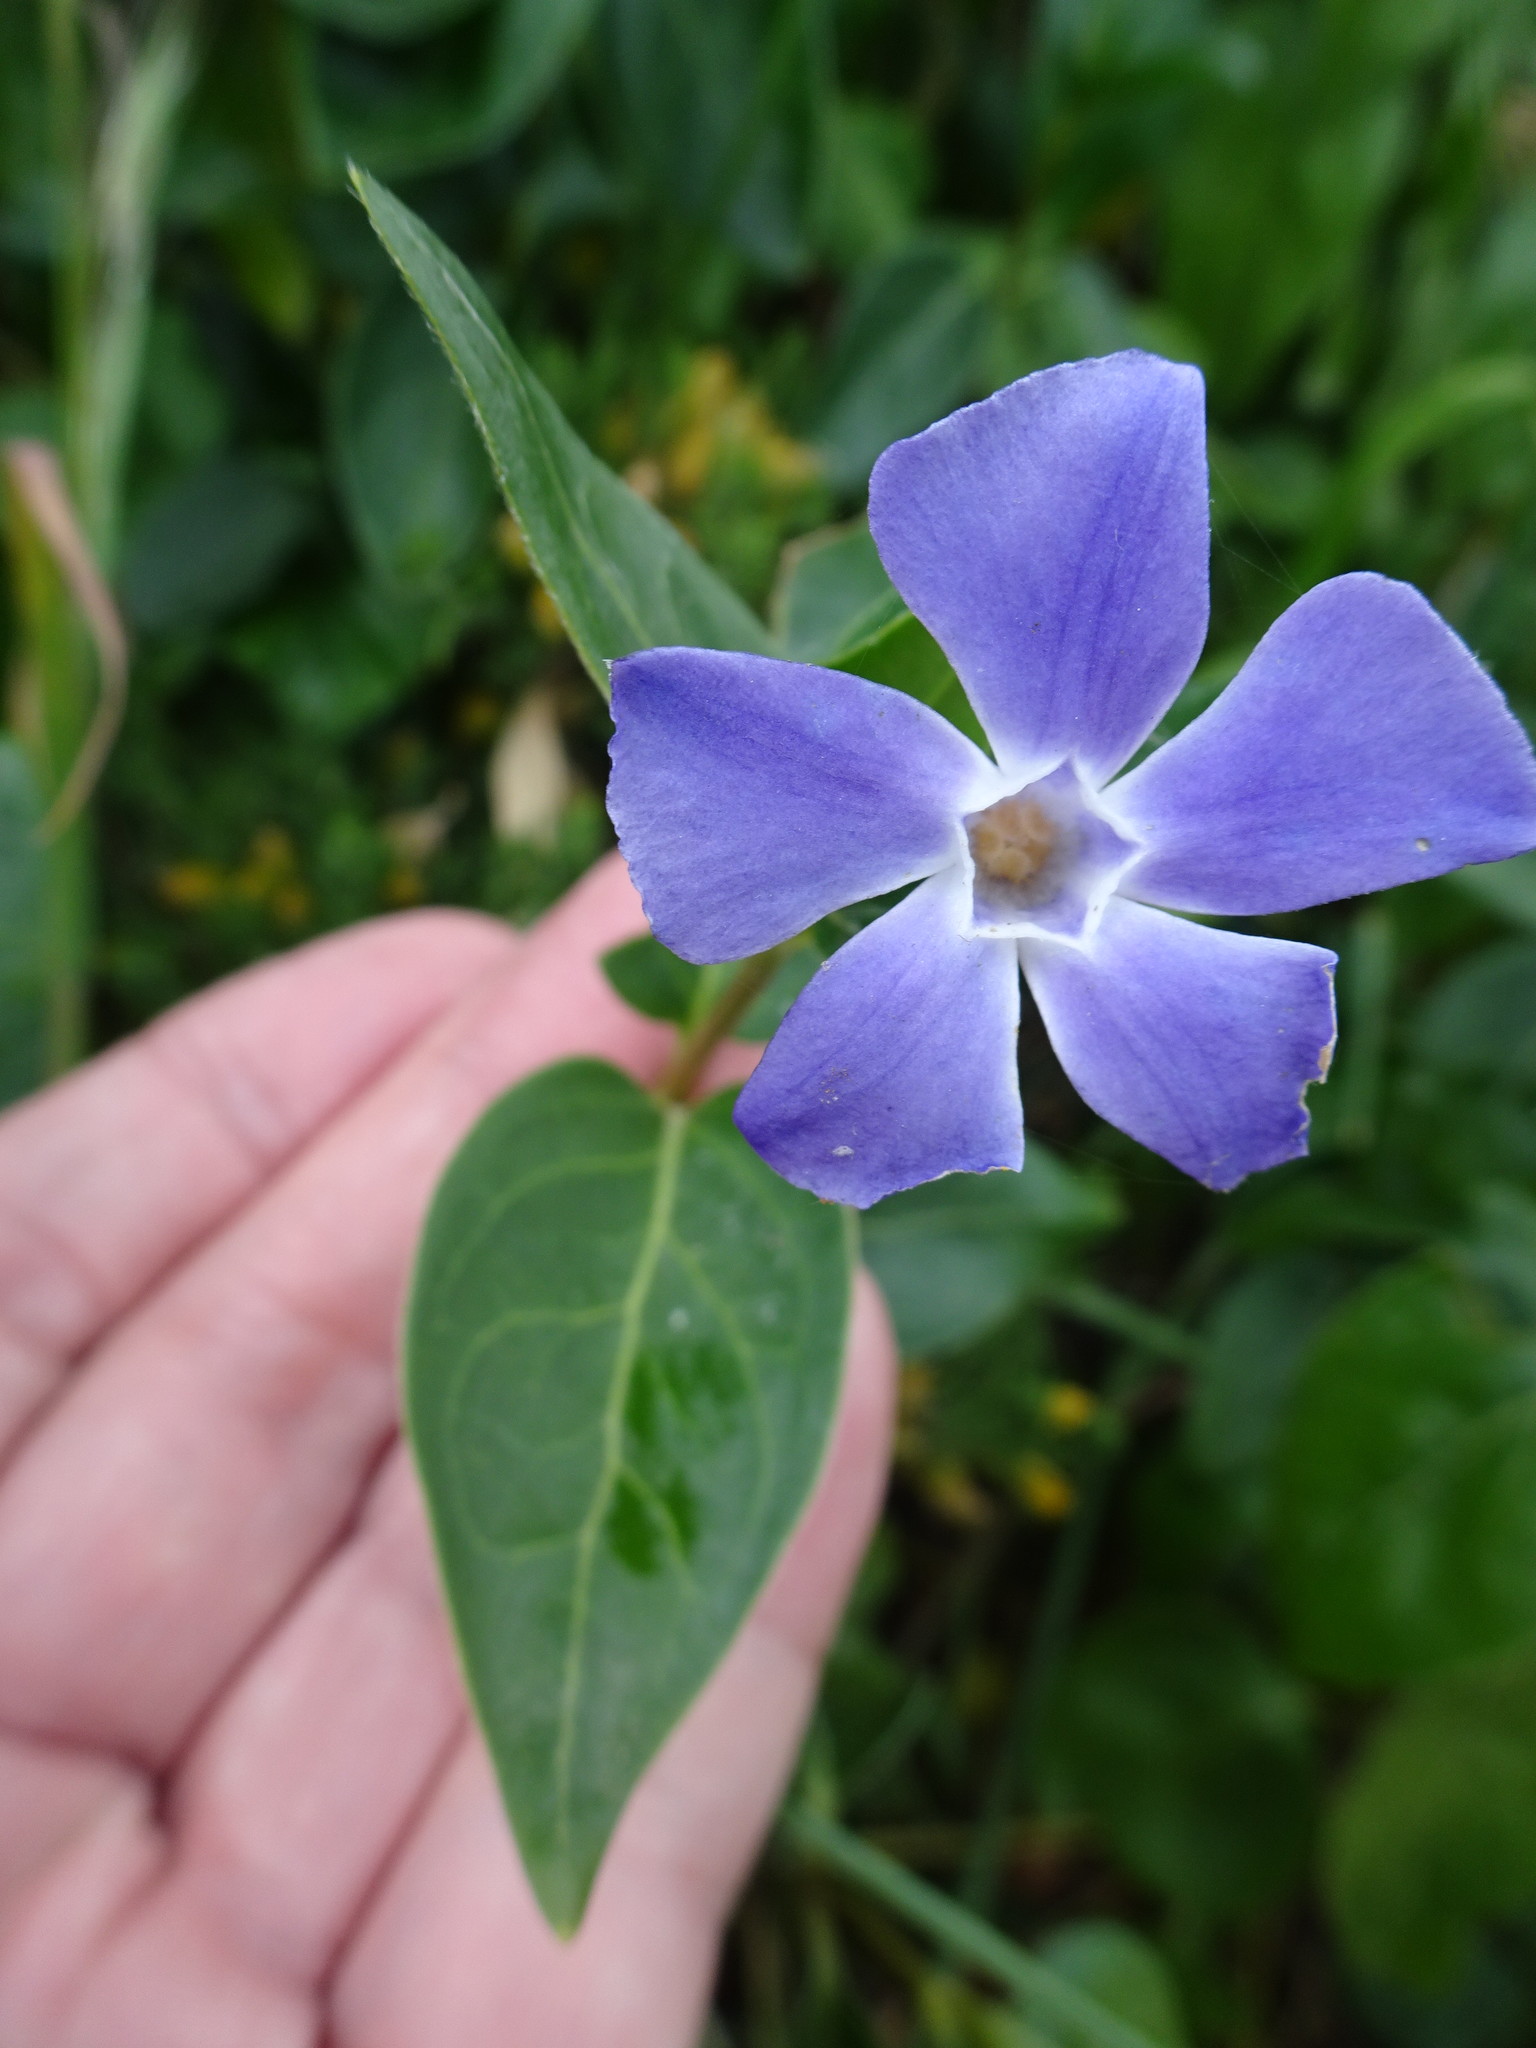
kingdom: Plantae
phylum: Tracheophyta
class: Magnoliopsida
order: Gentianales
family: Apocynaceae
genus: Vinca
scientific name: Vinca major
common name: Greater periwinkle
